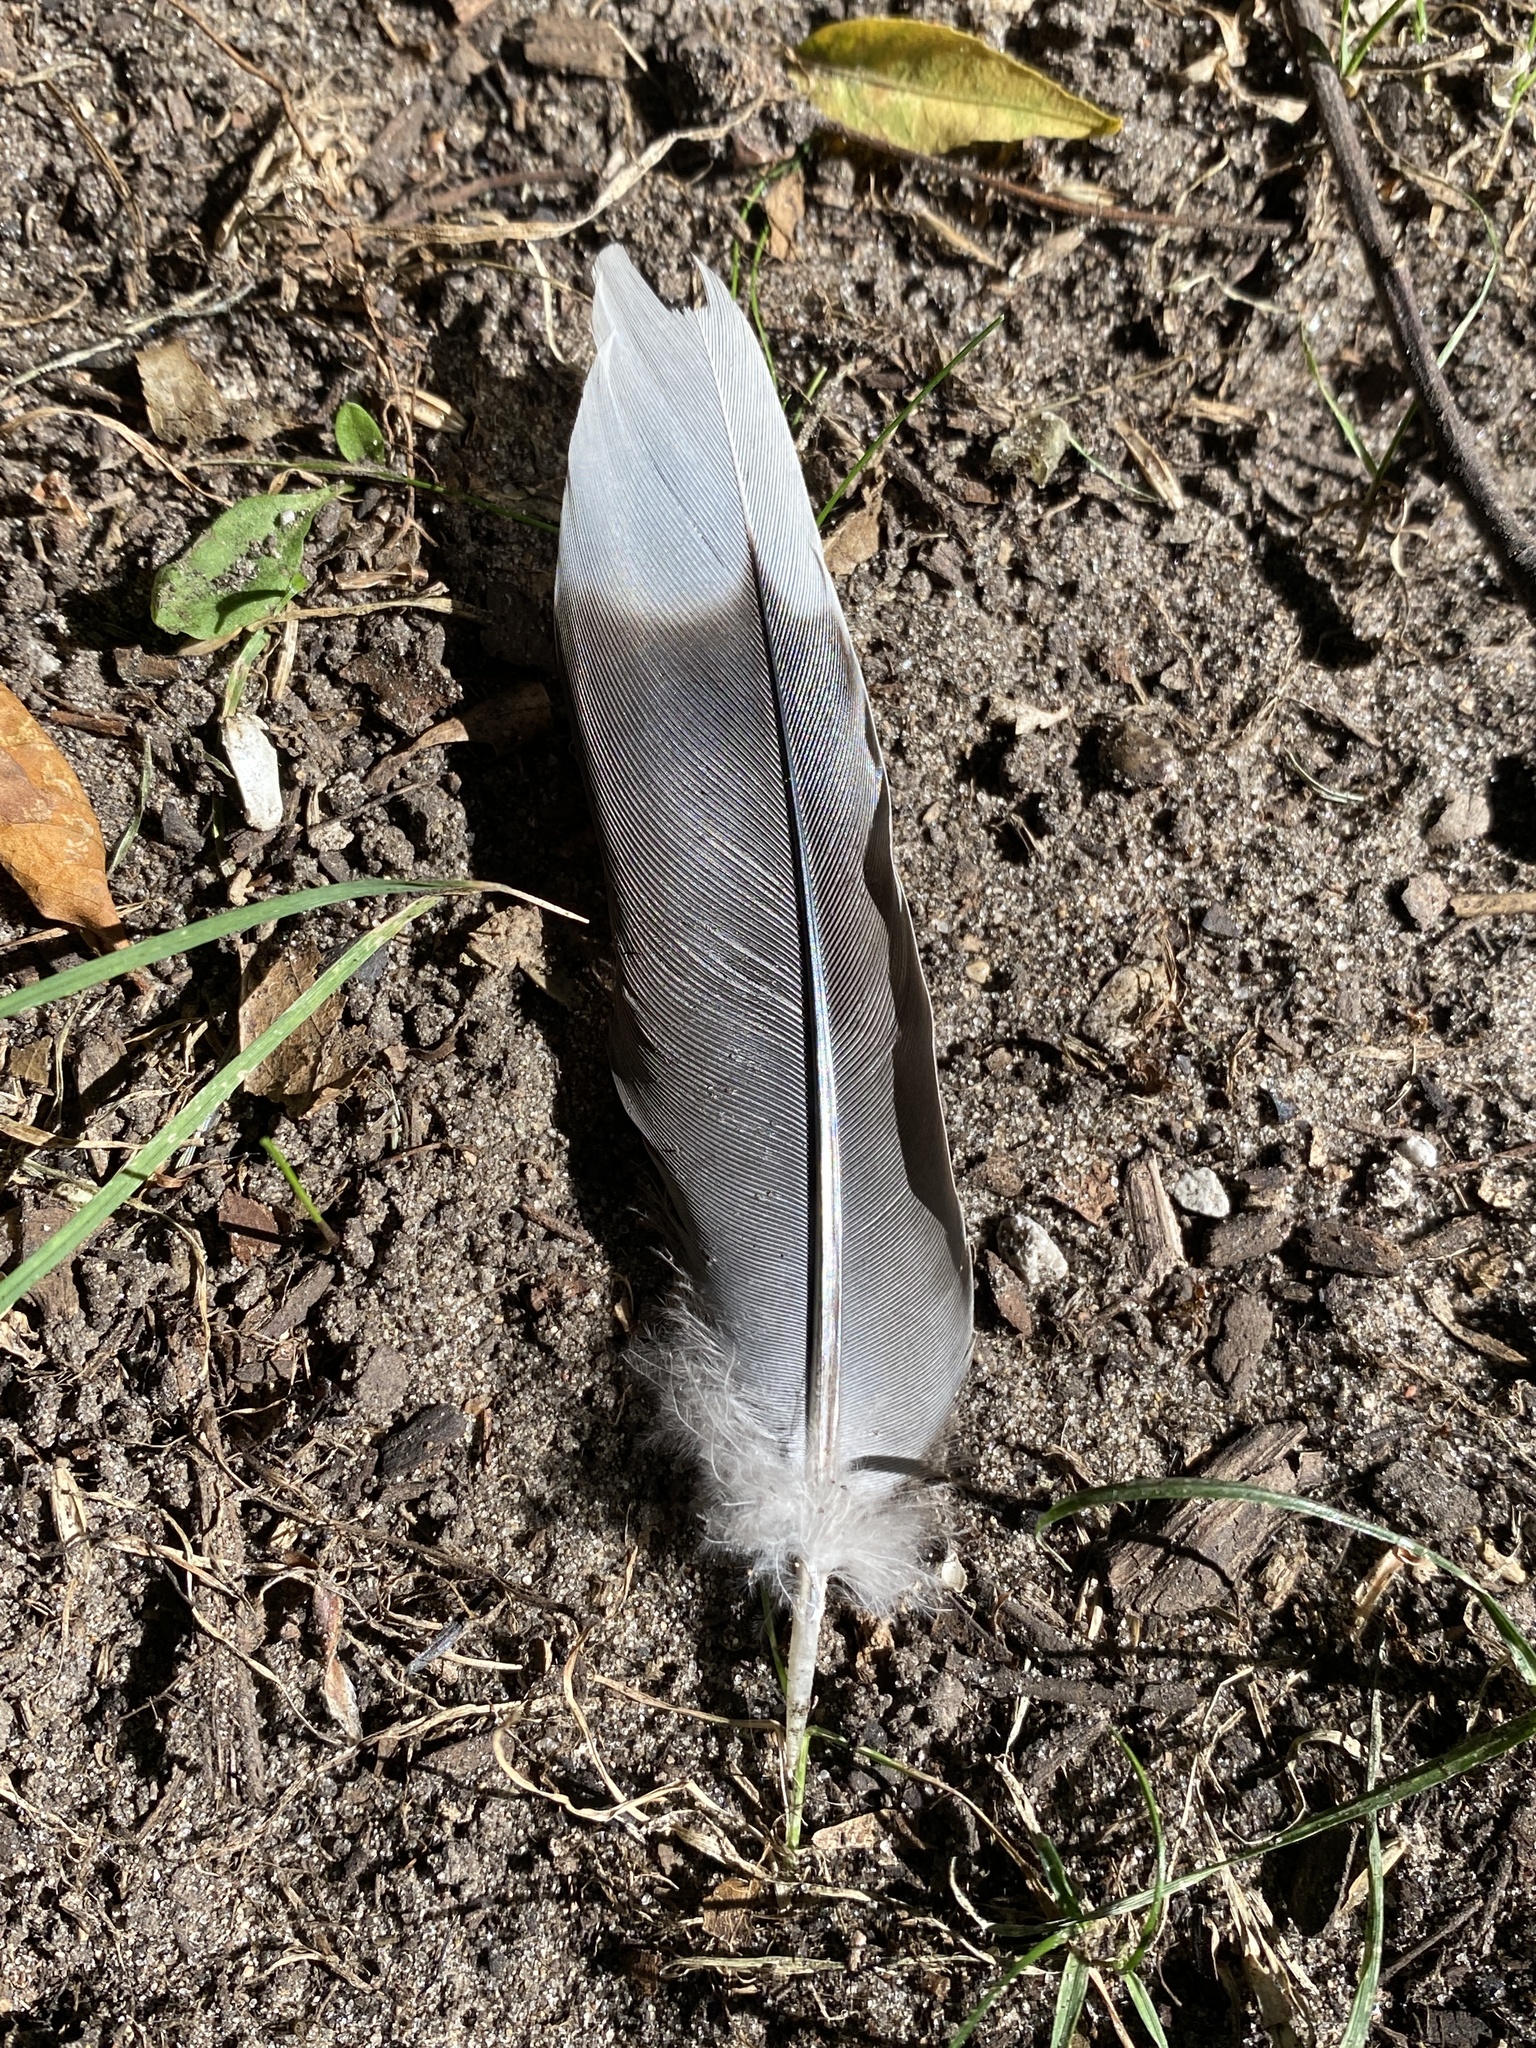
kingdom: Animalia
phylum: Chordata
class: Aves
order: Columbiformes
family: Columbidae
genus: Zenaida
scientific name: Zenaida macroura
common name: Mourning dove
